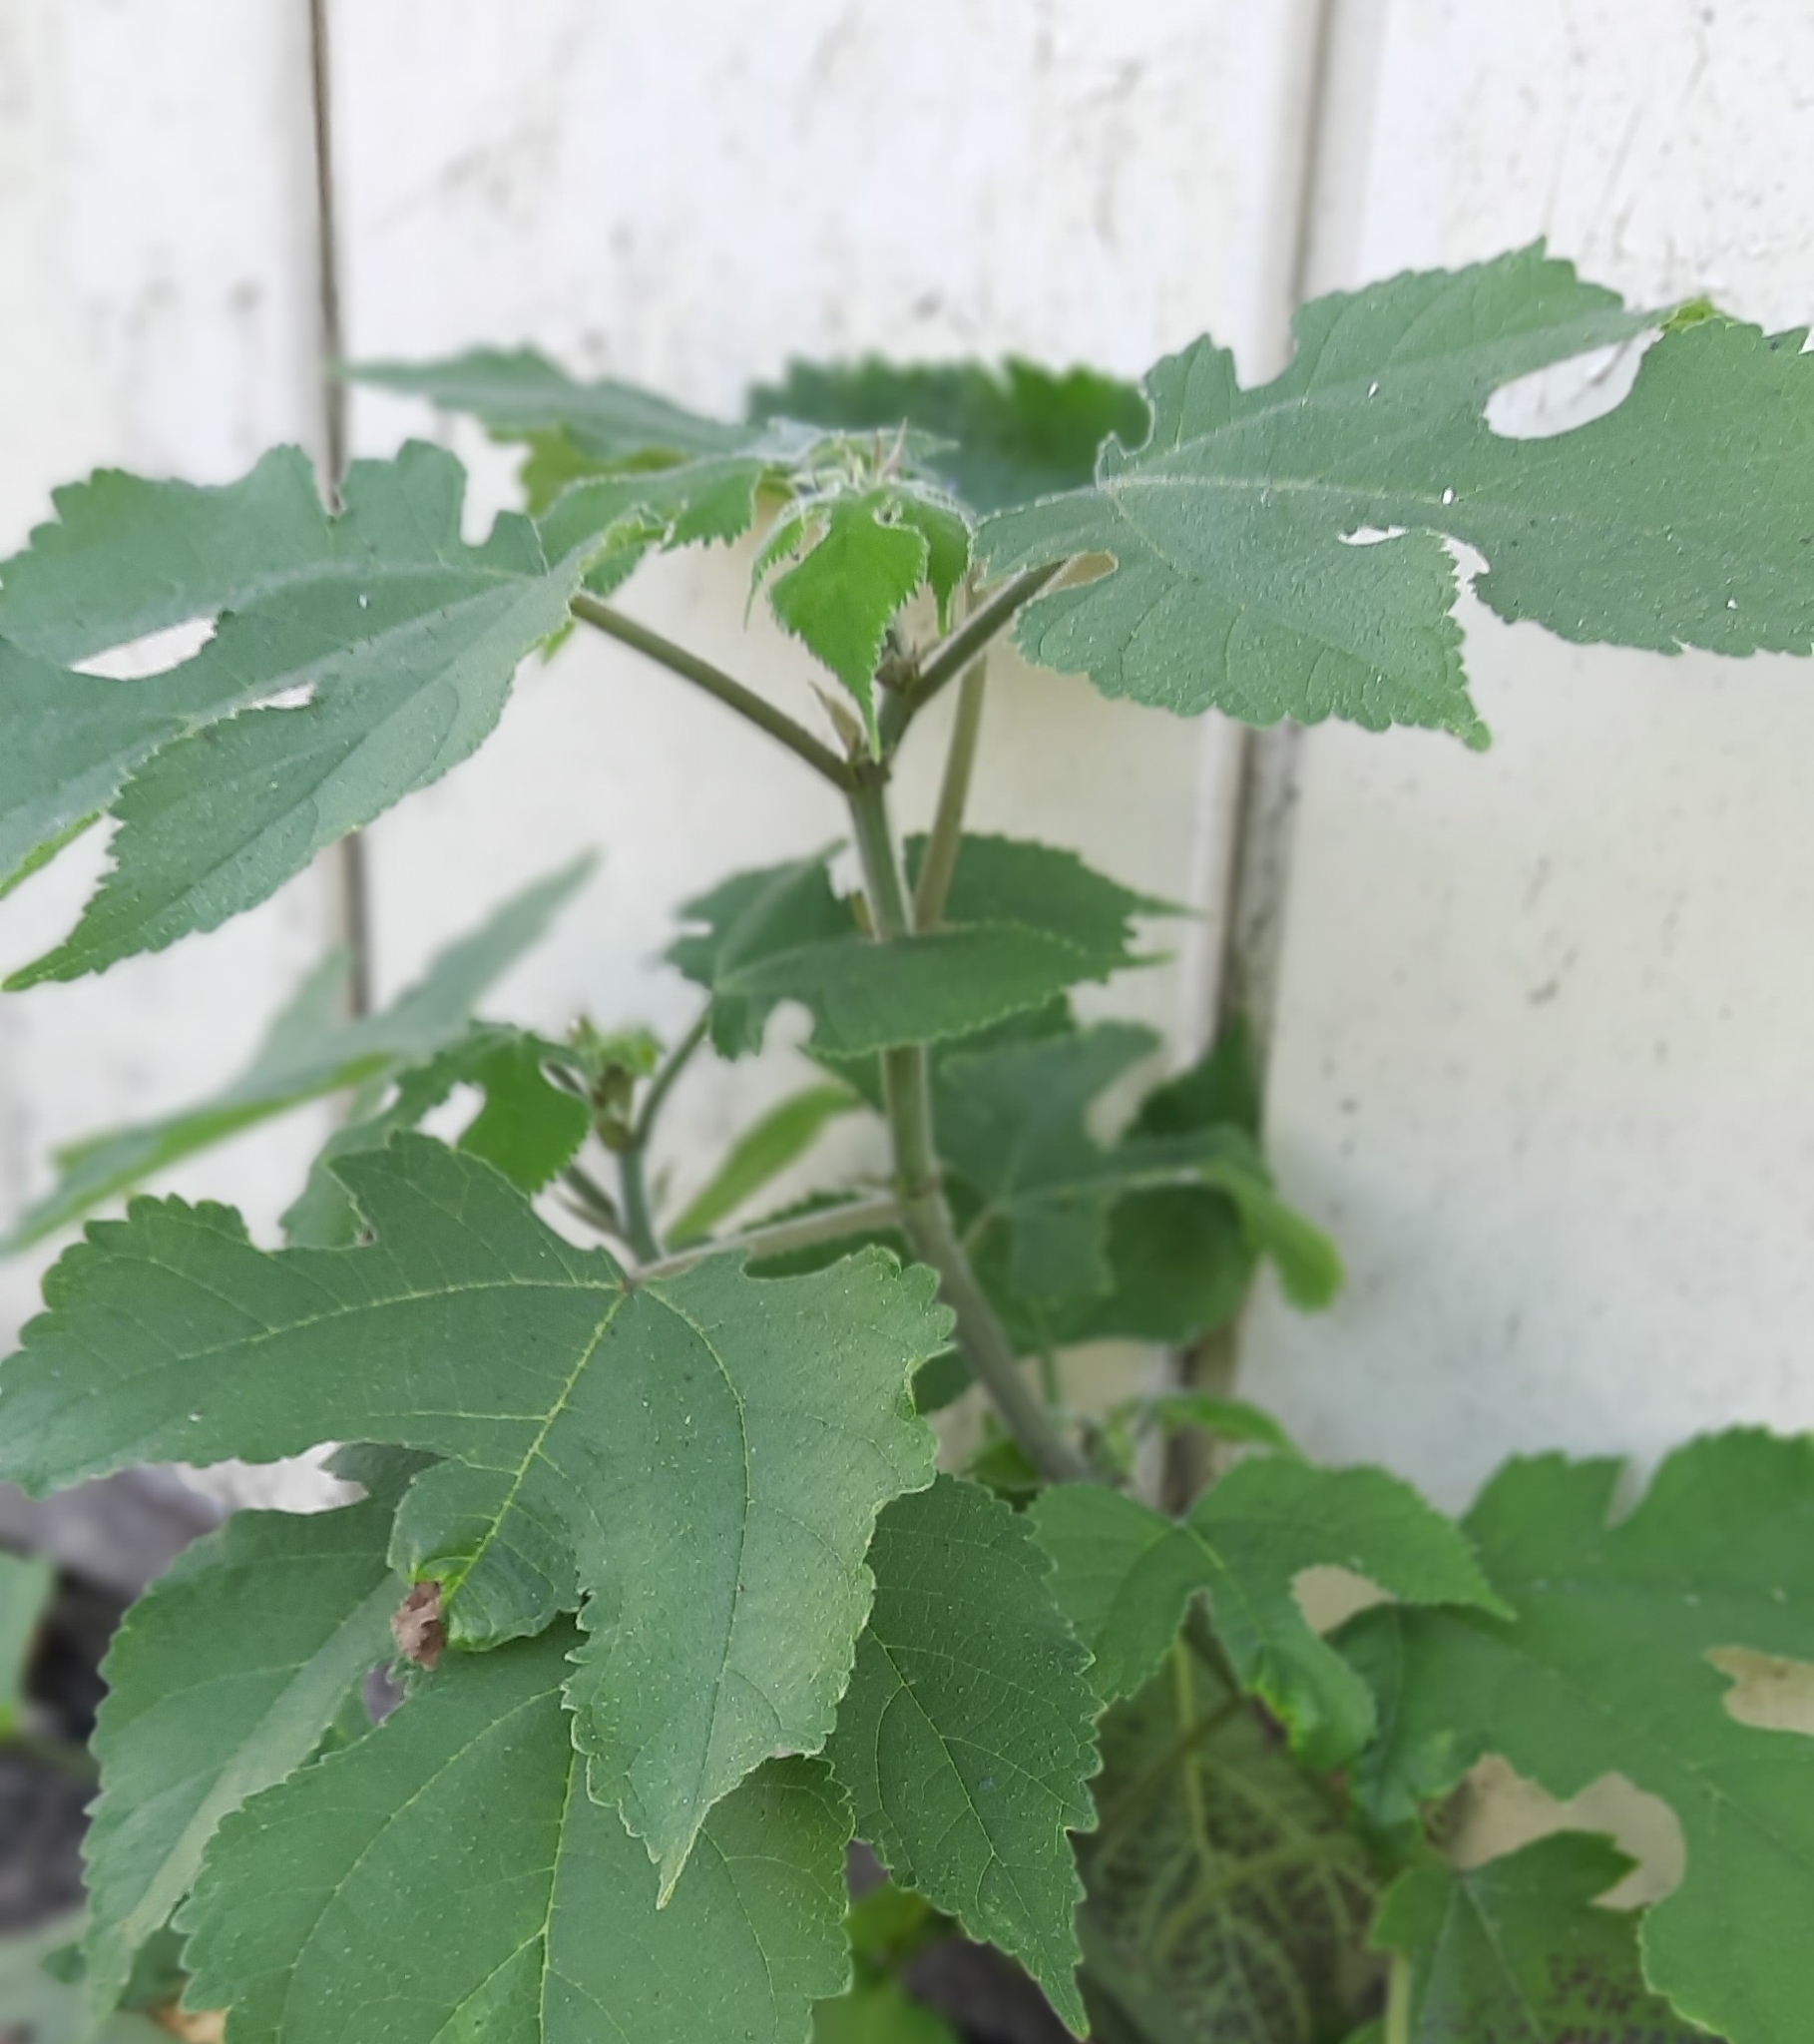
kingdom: Plantae
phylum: Tracheophyta
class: Magnoliopsida
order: Rosales
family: Moraceae
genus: Broussonetia
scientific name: Broussonetia papyrifera
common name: Paper mulberry
